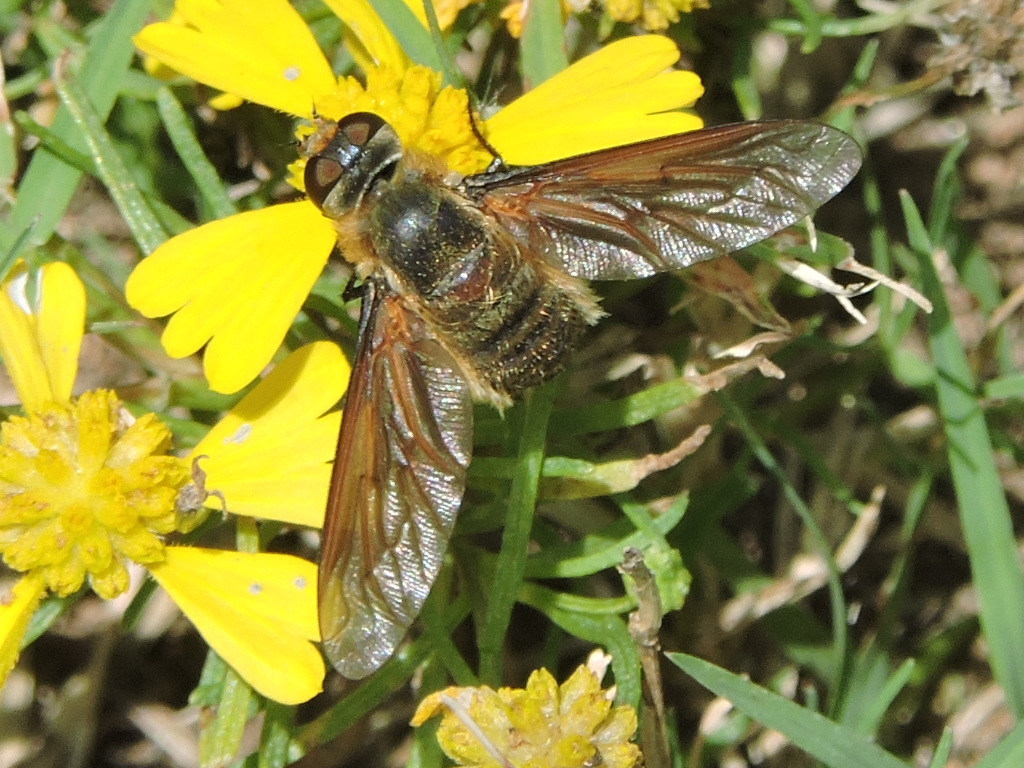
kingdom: Animalia
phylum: Arthropoda
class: Insecta
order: Diptera
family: Bombyliidae
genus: Poecilanthrax
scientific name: Poecilanthrax lucifer
